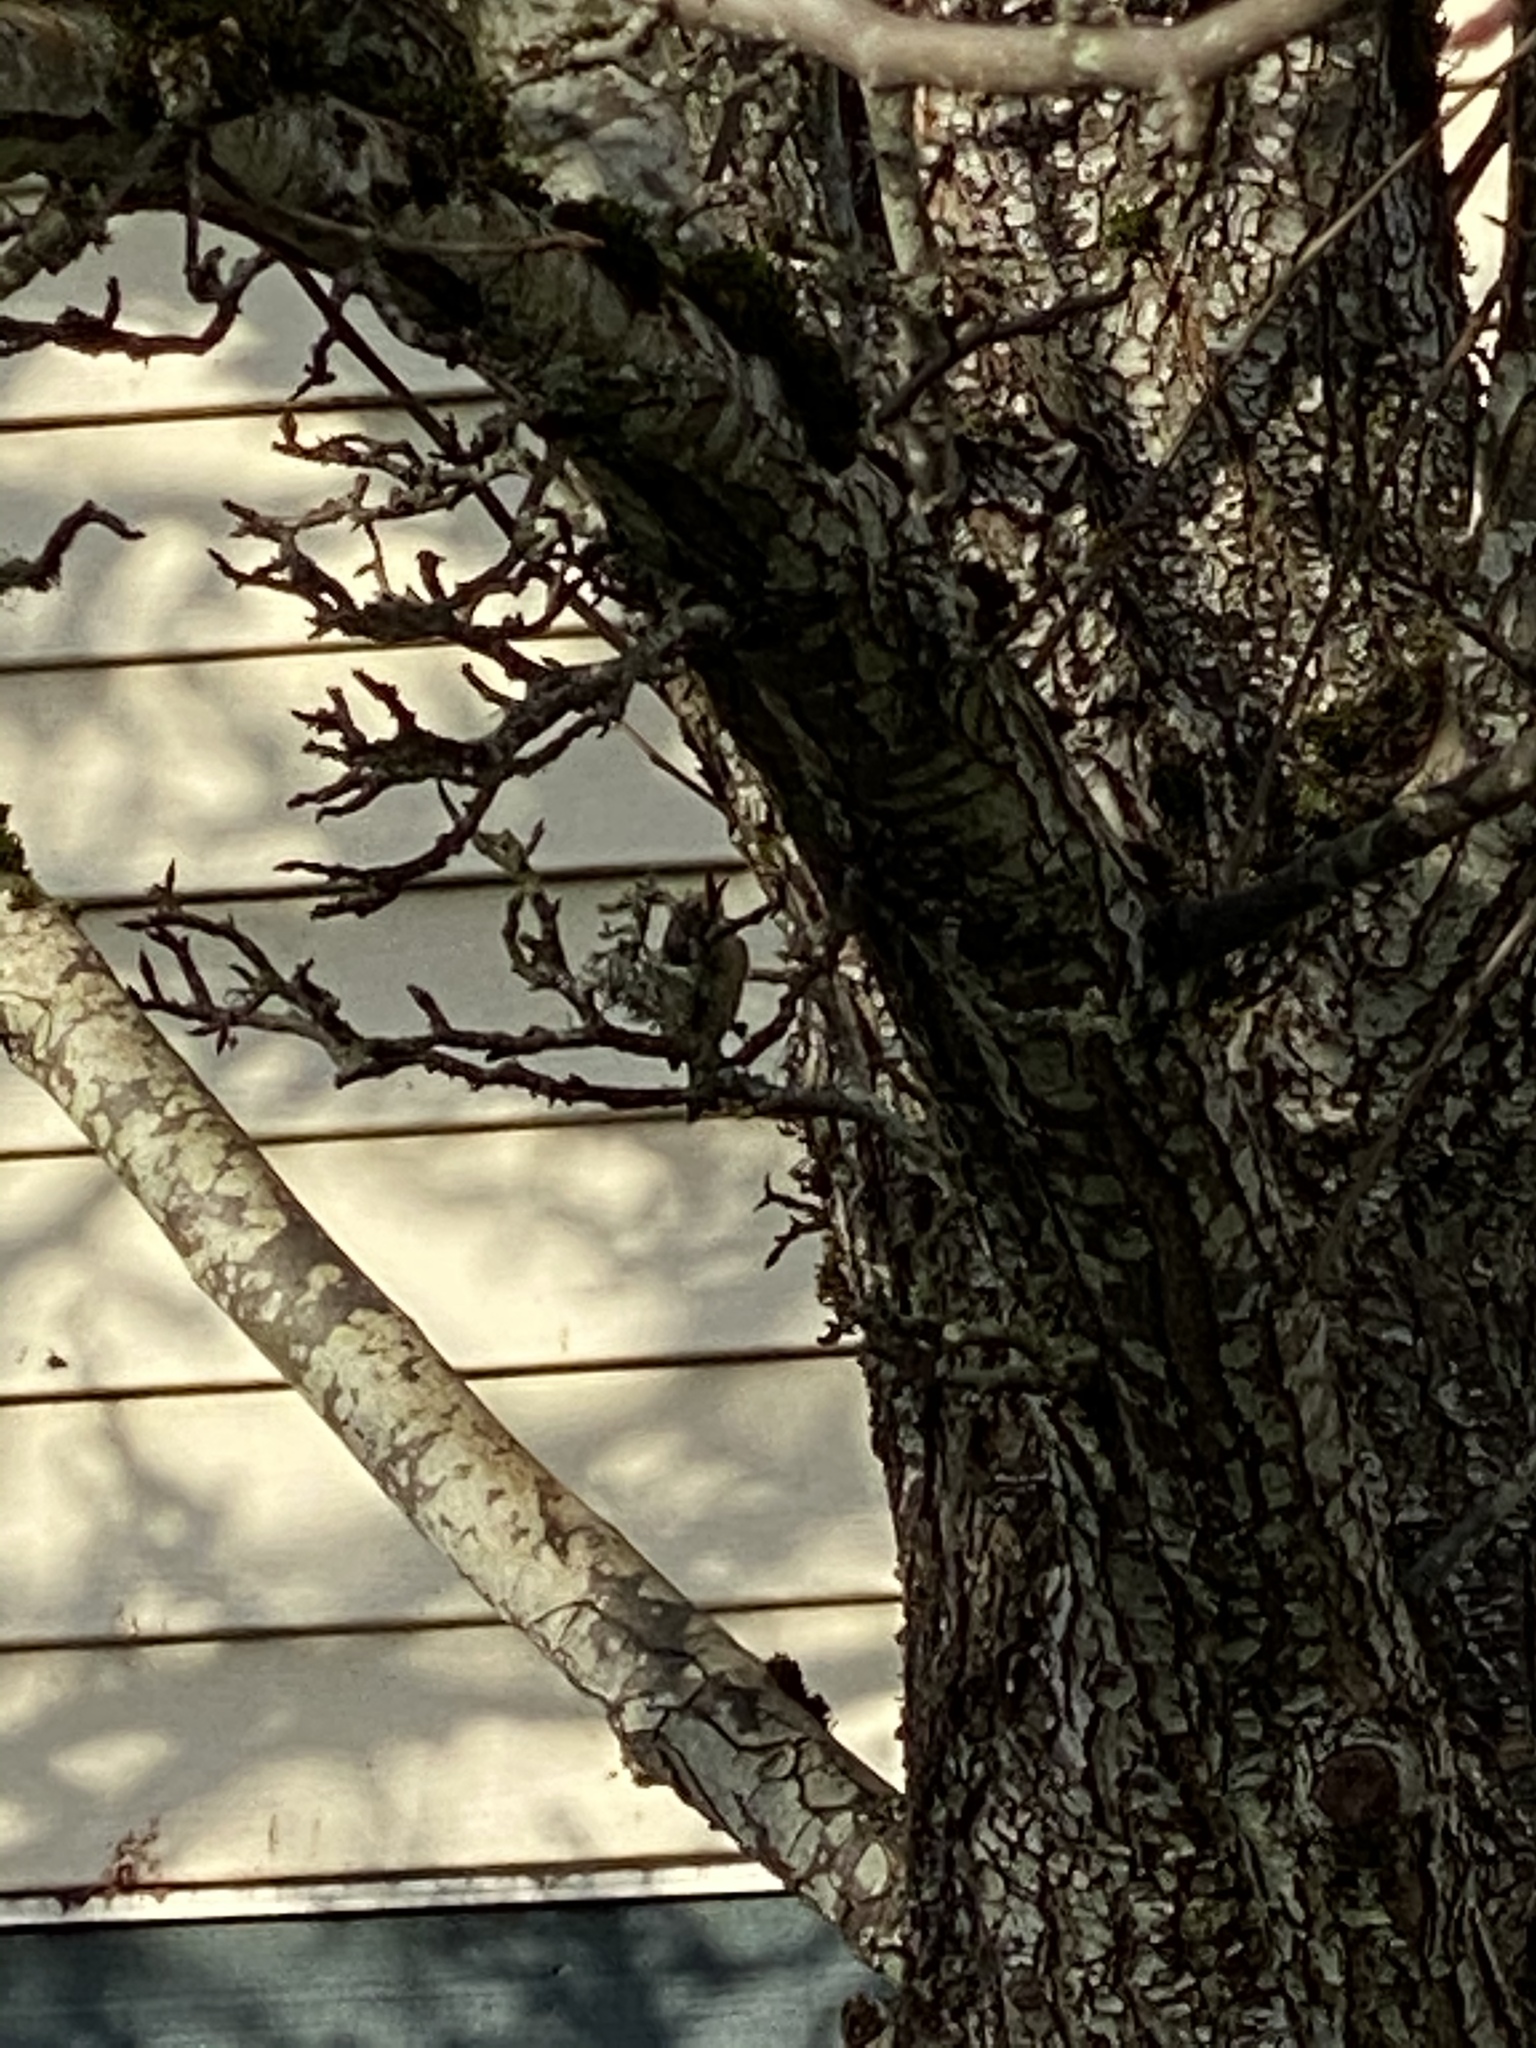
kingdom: Animalia
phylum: Chordata
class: Aves
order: Passeriformes
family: Regulidae
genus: Regulus
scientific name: Regulus calendula
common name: Ruby-crowned kinglet
